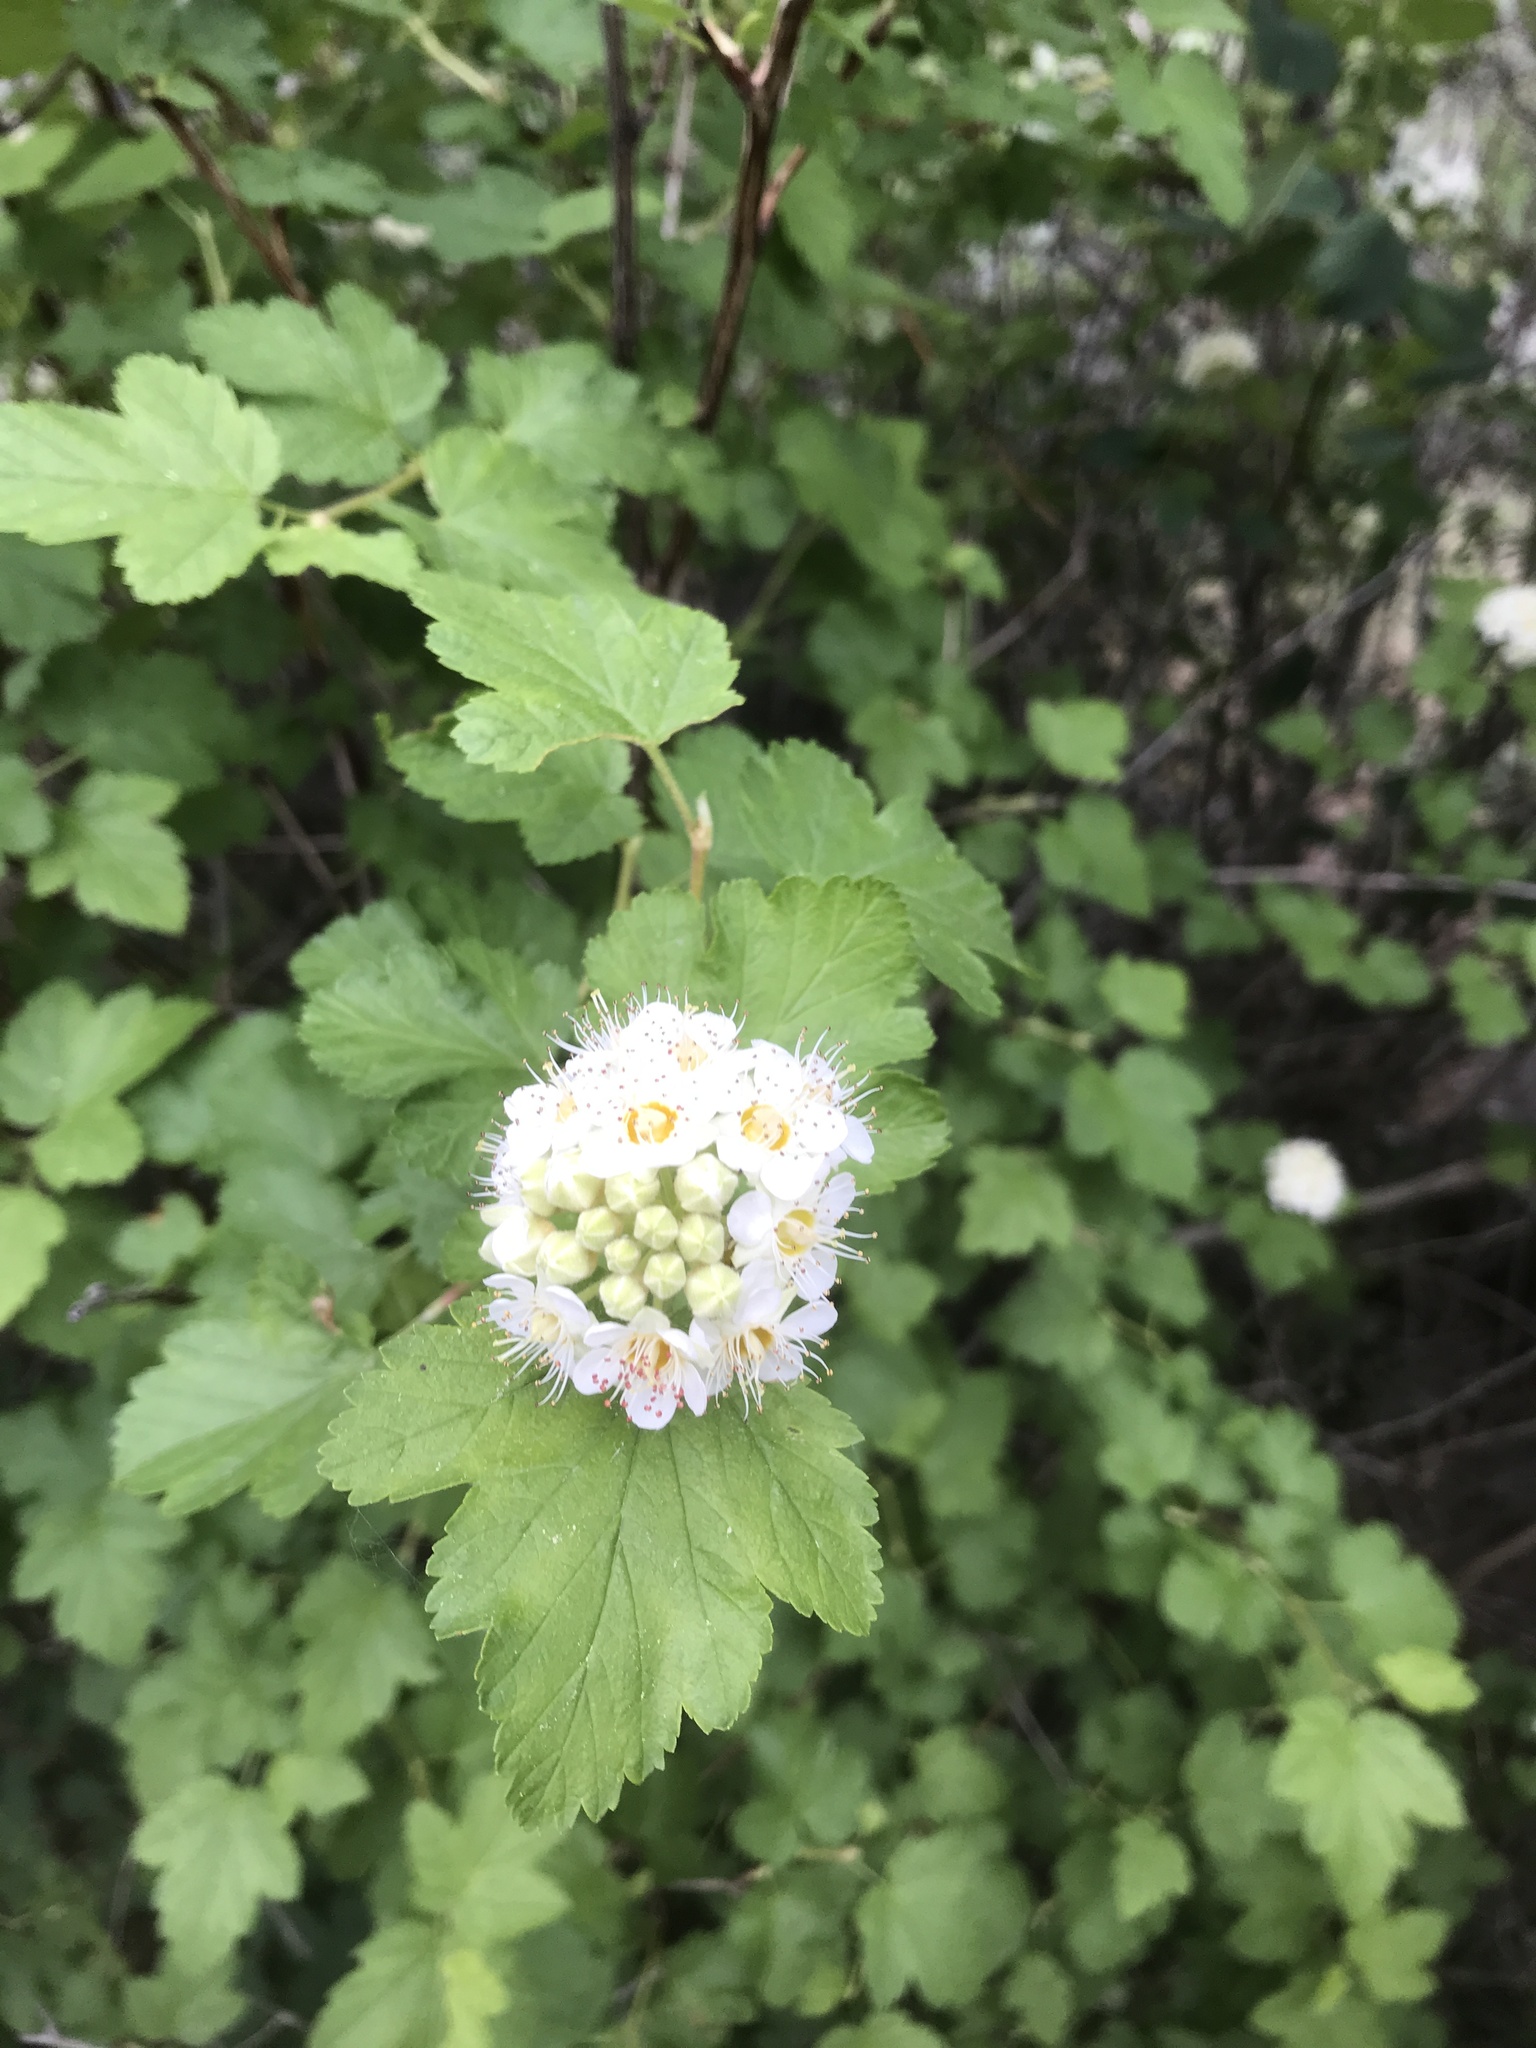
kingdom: Plantae
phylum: Tracheophyta
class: Magnoliopsida
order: Rosales
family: Rosaceae
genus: Physocarpus
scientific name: Physocarpus malvaceus
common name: Mallow ninebark
